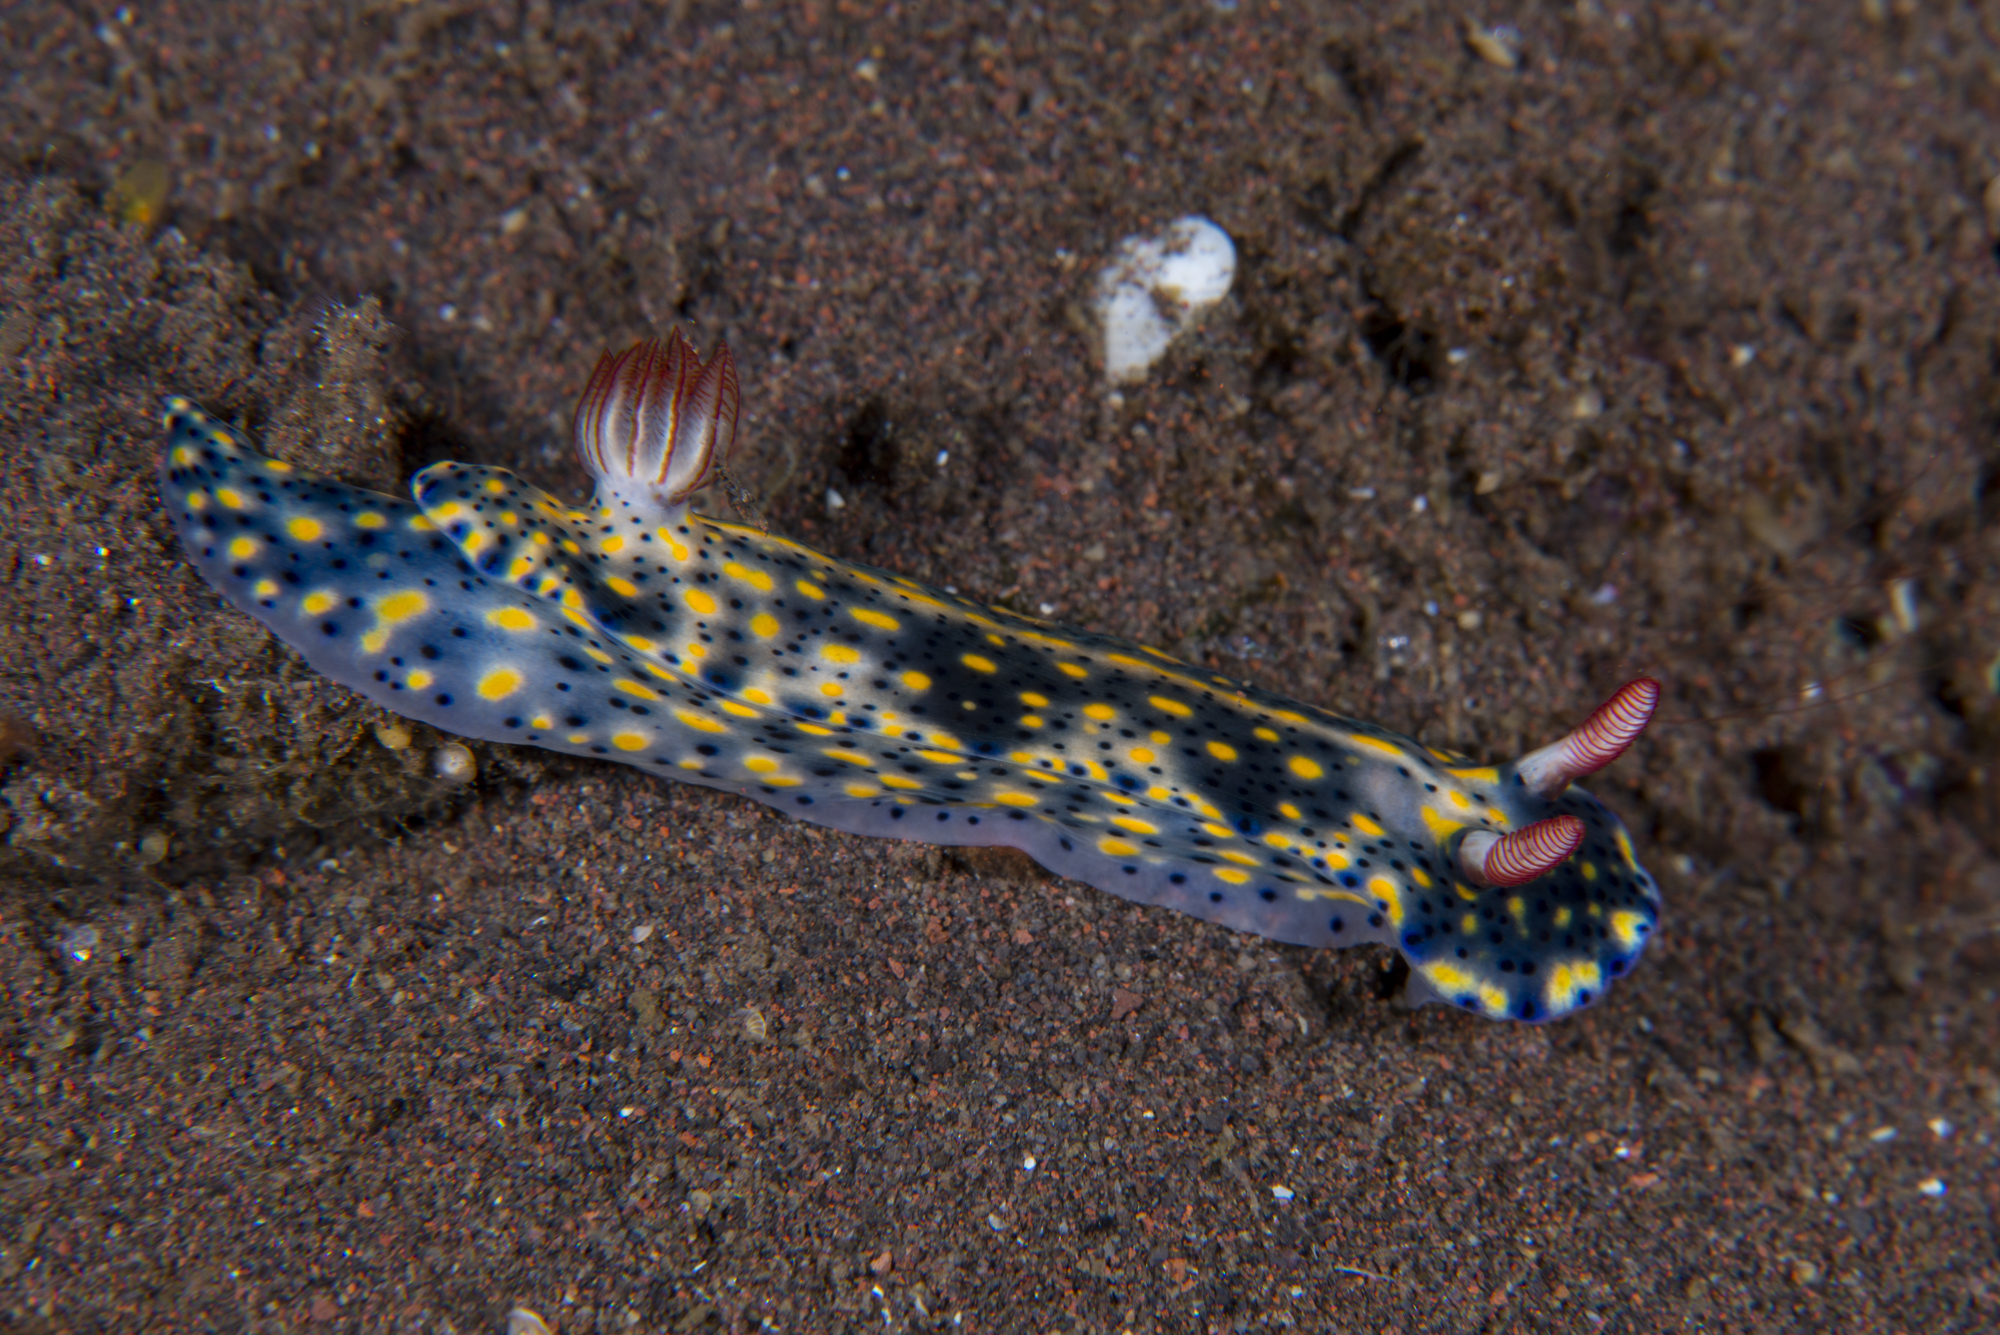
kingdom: Animalia
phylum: Mollusca
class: Gastropoda
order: Nudibranchia
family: Chromodorididae
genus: Hypselodoris
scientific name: Hypselodoris infucata
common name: Mottled dorid
